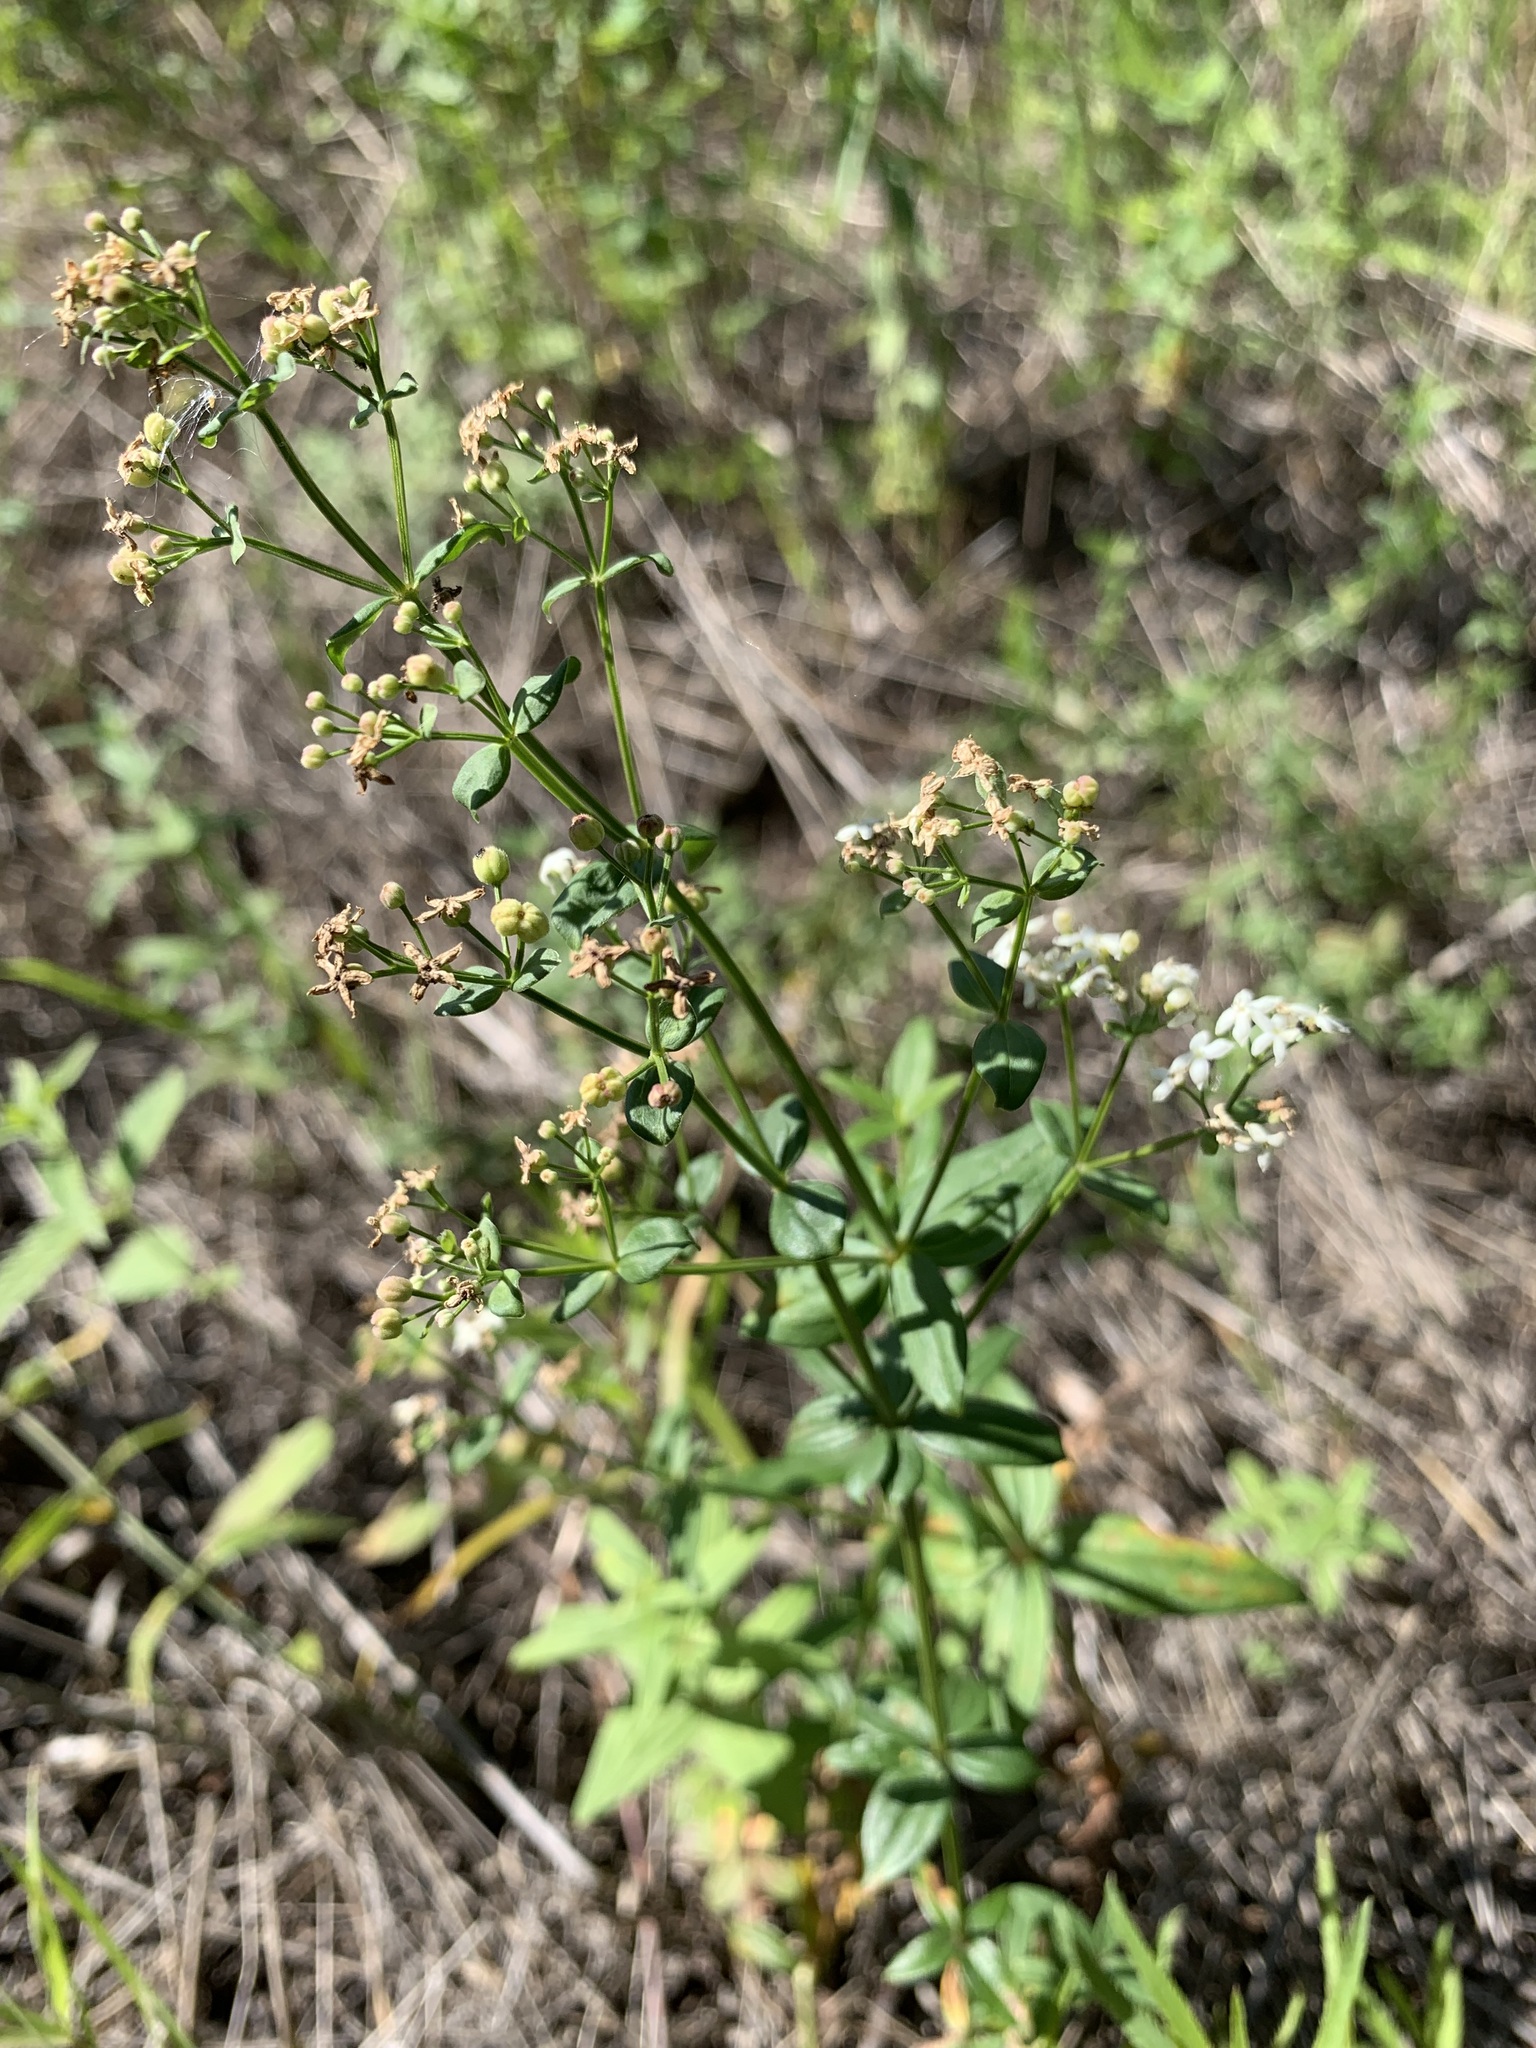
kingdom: Plantae
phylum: Tracheophyta
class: Magnoliopsida
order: Gentianales
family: Rubiaceae
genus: Galium
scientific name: Galium rubioides
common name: European bedstraw
